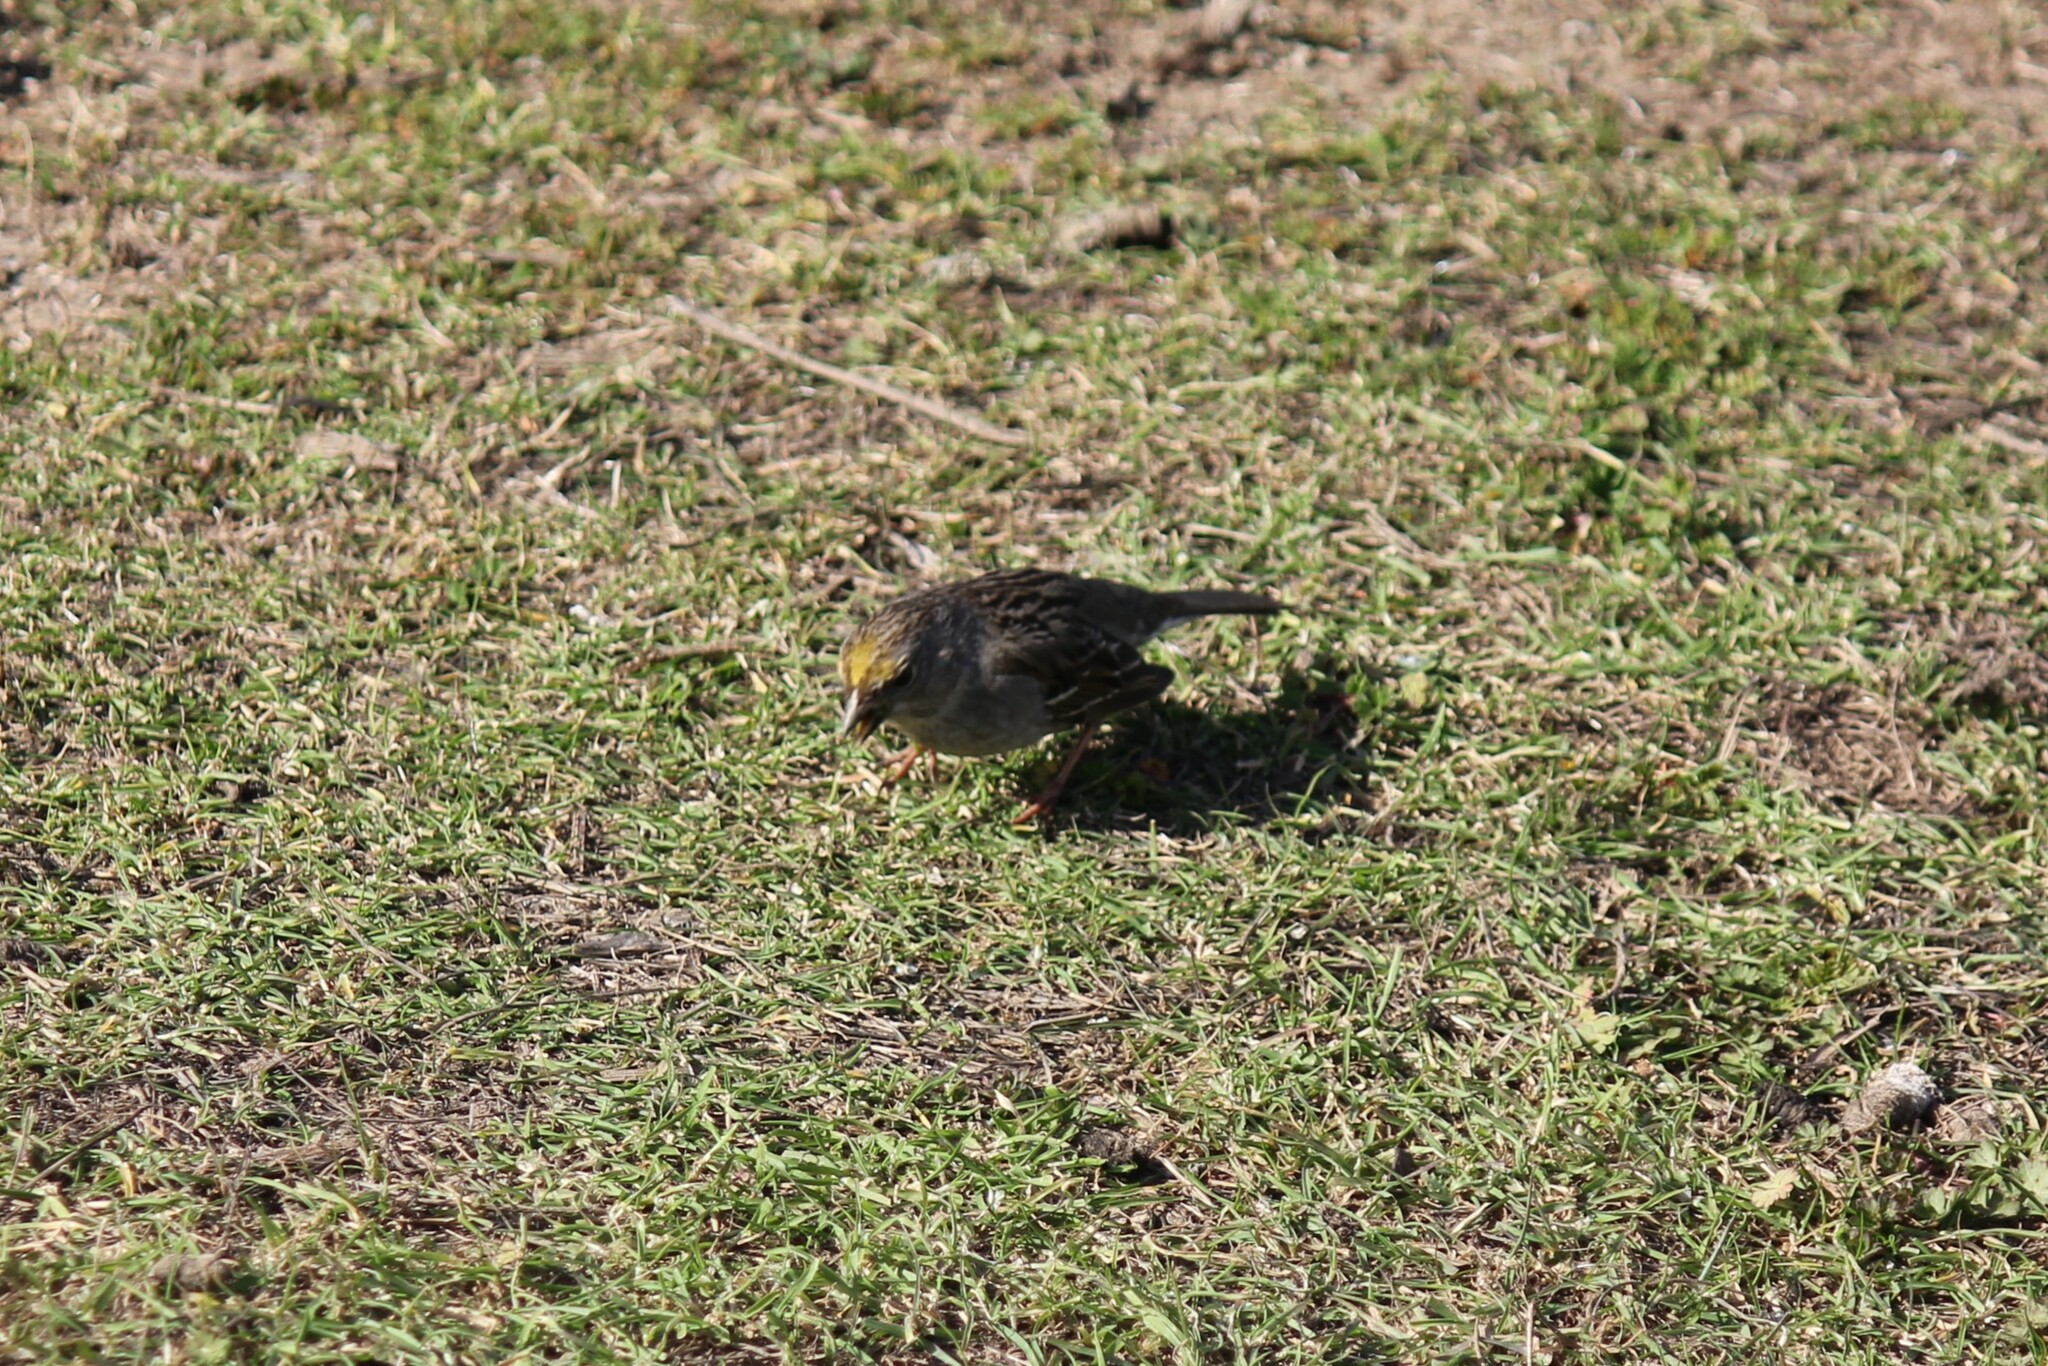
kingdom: Animalia
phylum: Chordata
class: Aves
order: Passeriformes
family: Passerellidae
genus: Zonotrichia
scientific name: Zonotrichia atricapilla
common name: Golden-crowned sparrow
